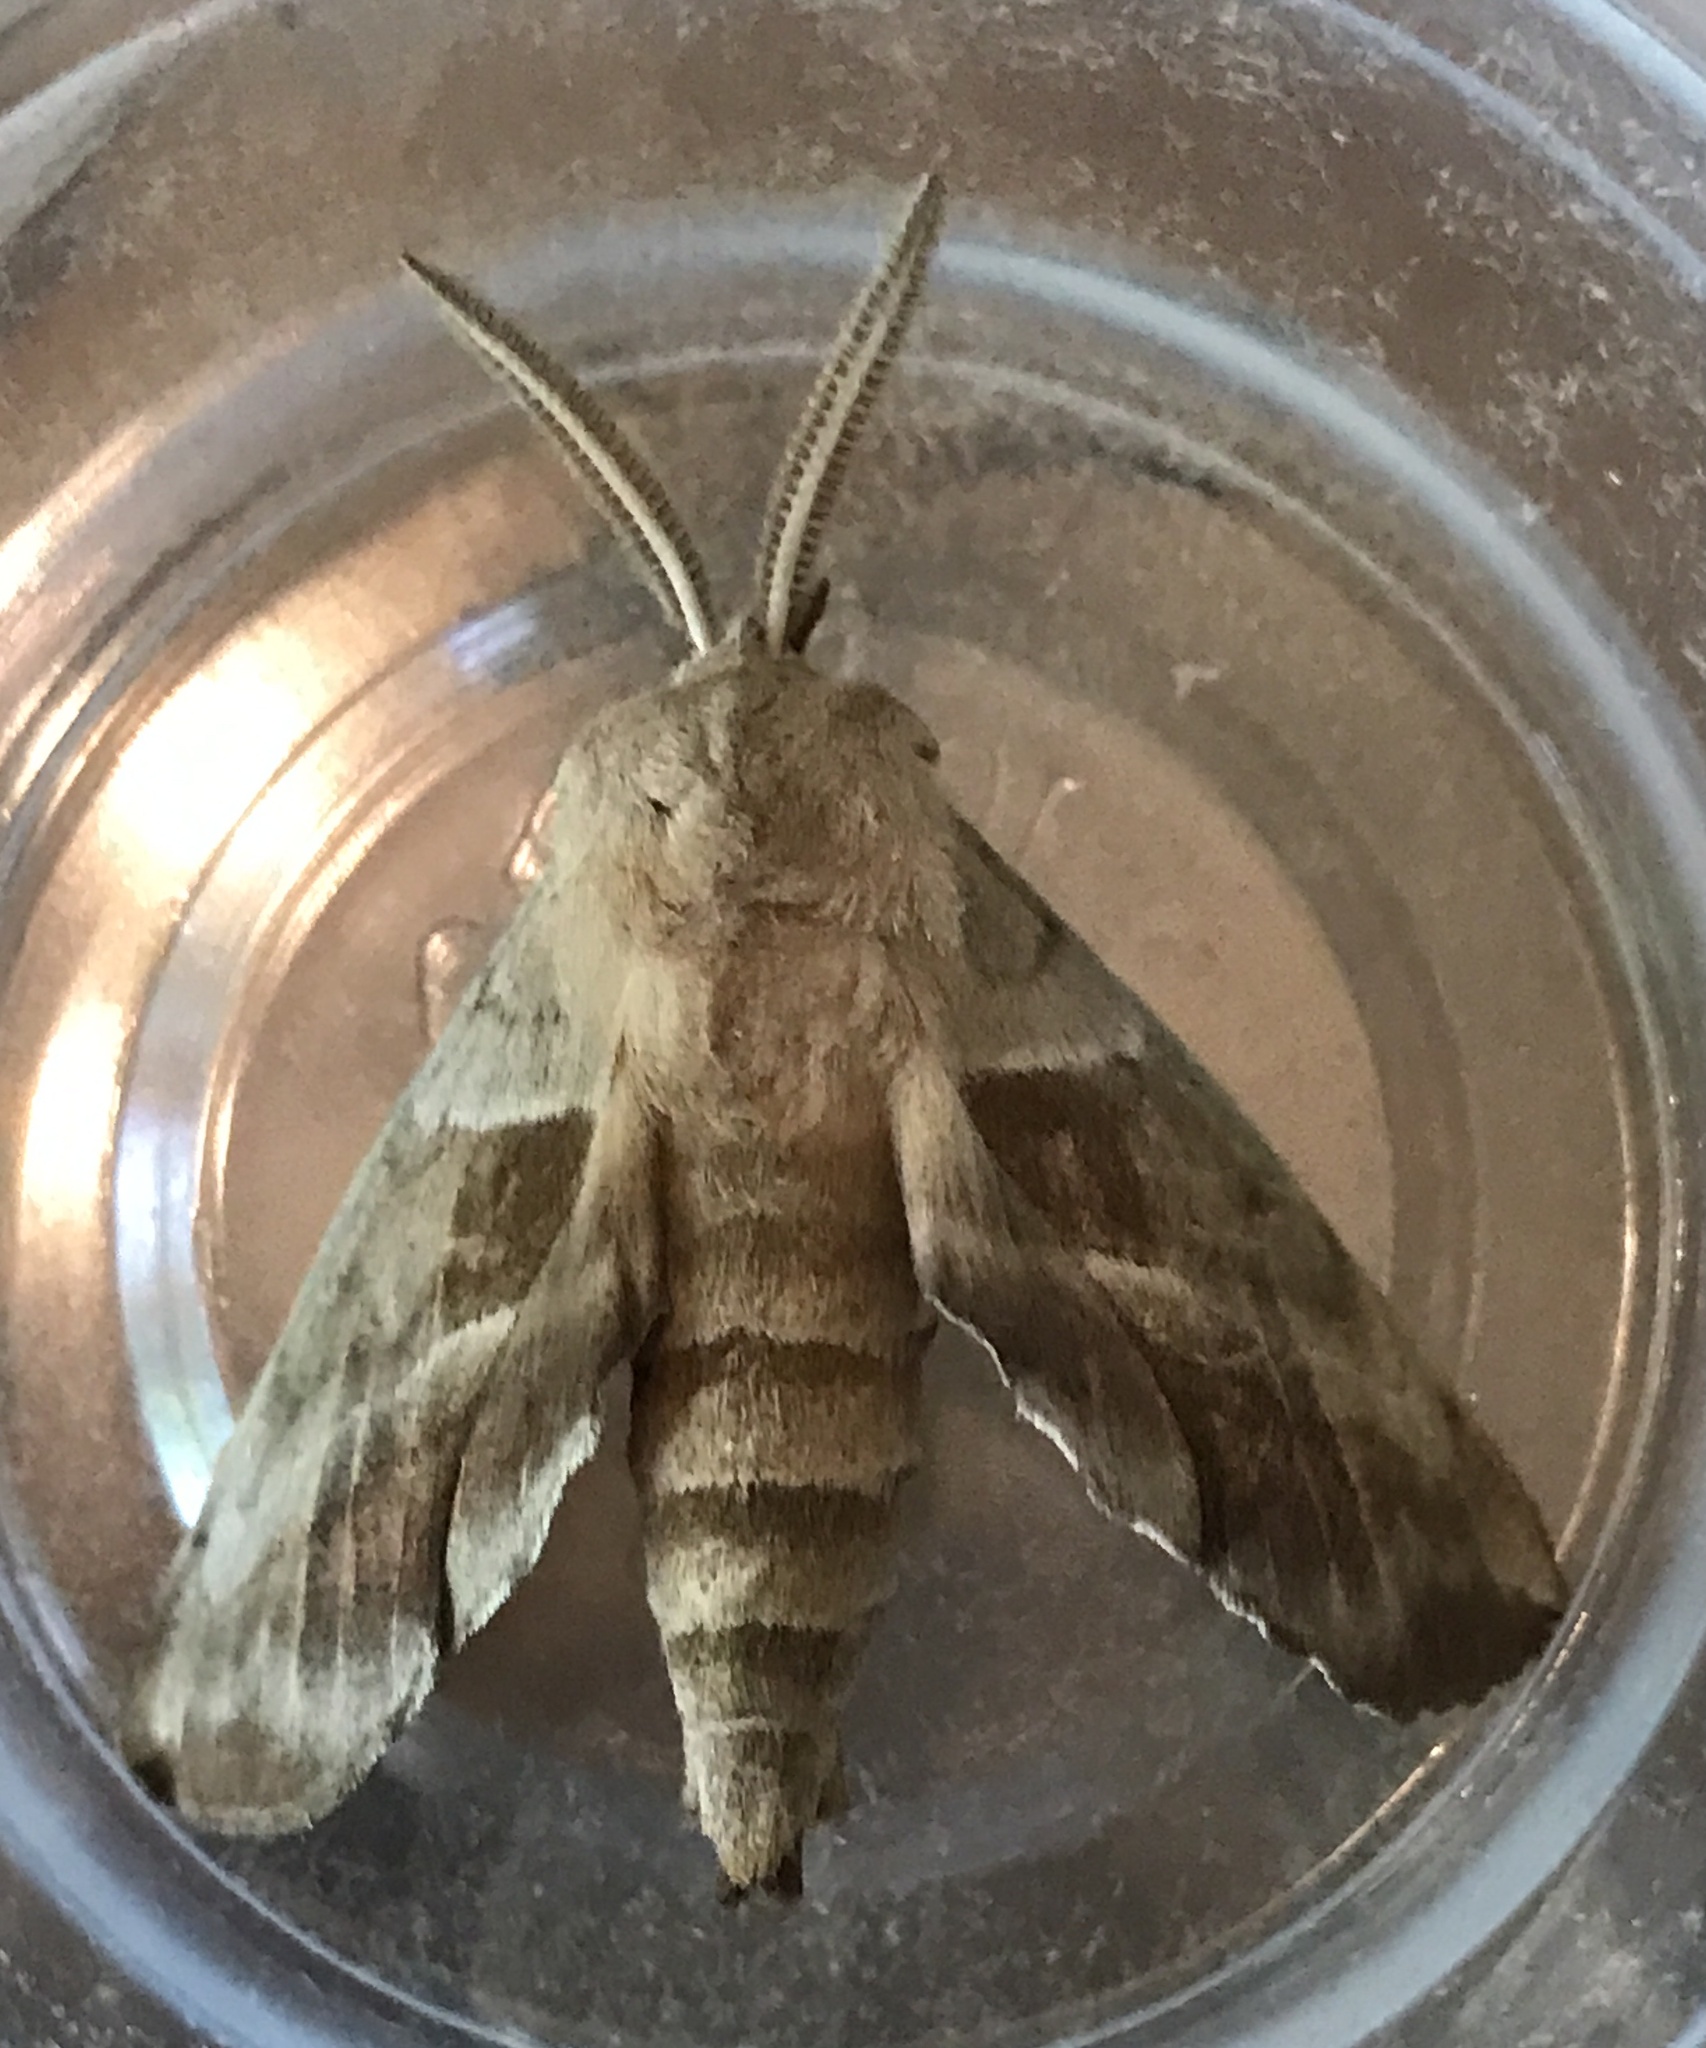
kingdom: Animalia
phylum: Arthropoda
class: Insecta
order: Lepidoptera
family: Sphingidae
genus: Amorpha
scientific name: Amorpha juglandis
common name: Walnut sphinx
